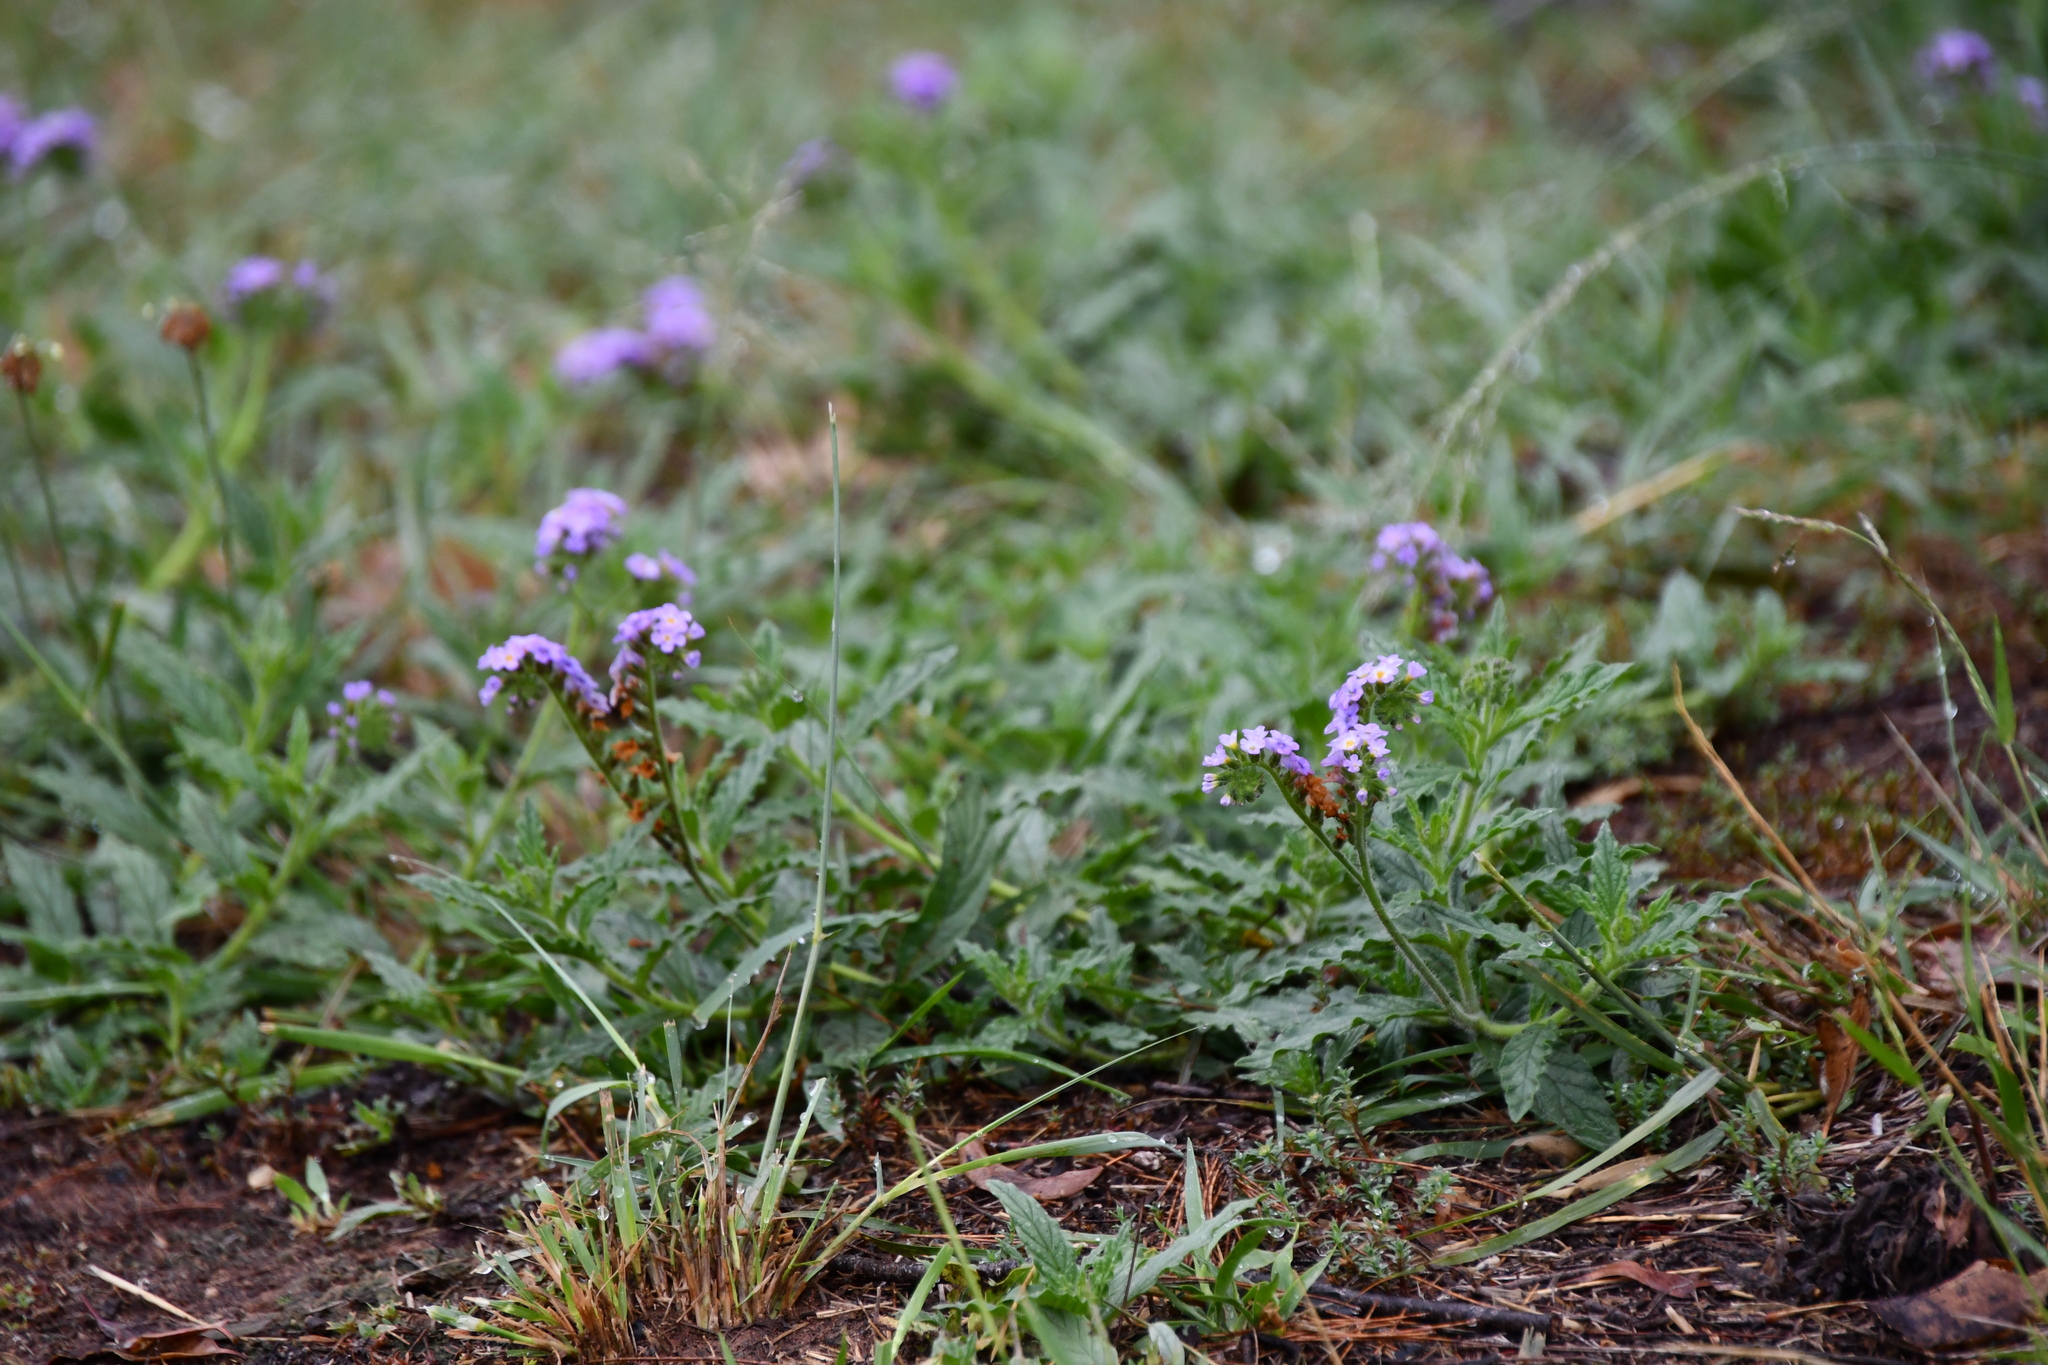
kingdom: Plantae
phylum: Tracheophyta
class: Magnoliopsida
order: Boraginales
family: Heliotropiaceae
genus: Heliotropium
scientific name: Heliotropium amplexicaule
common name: Clasping heliotrope
